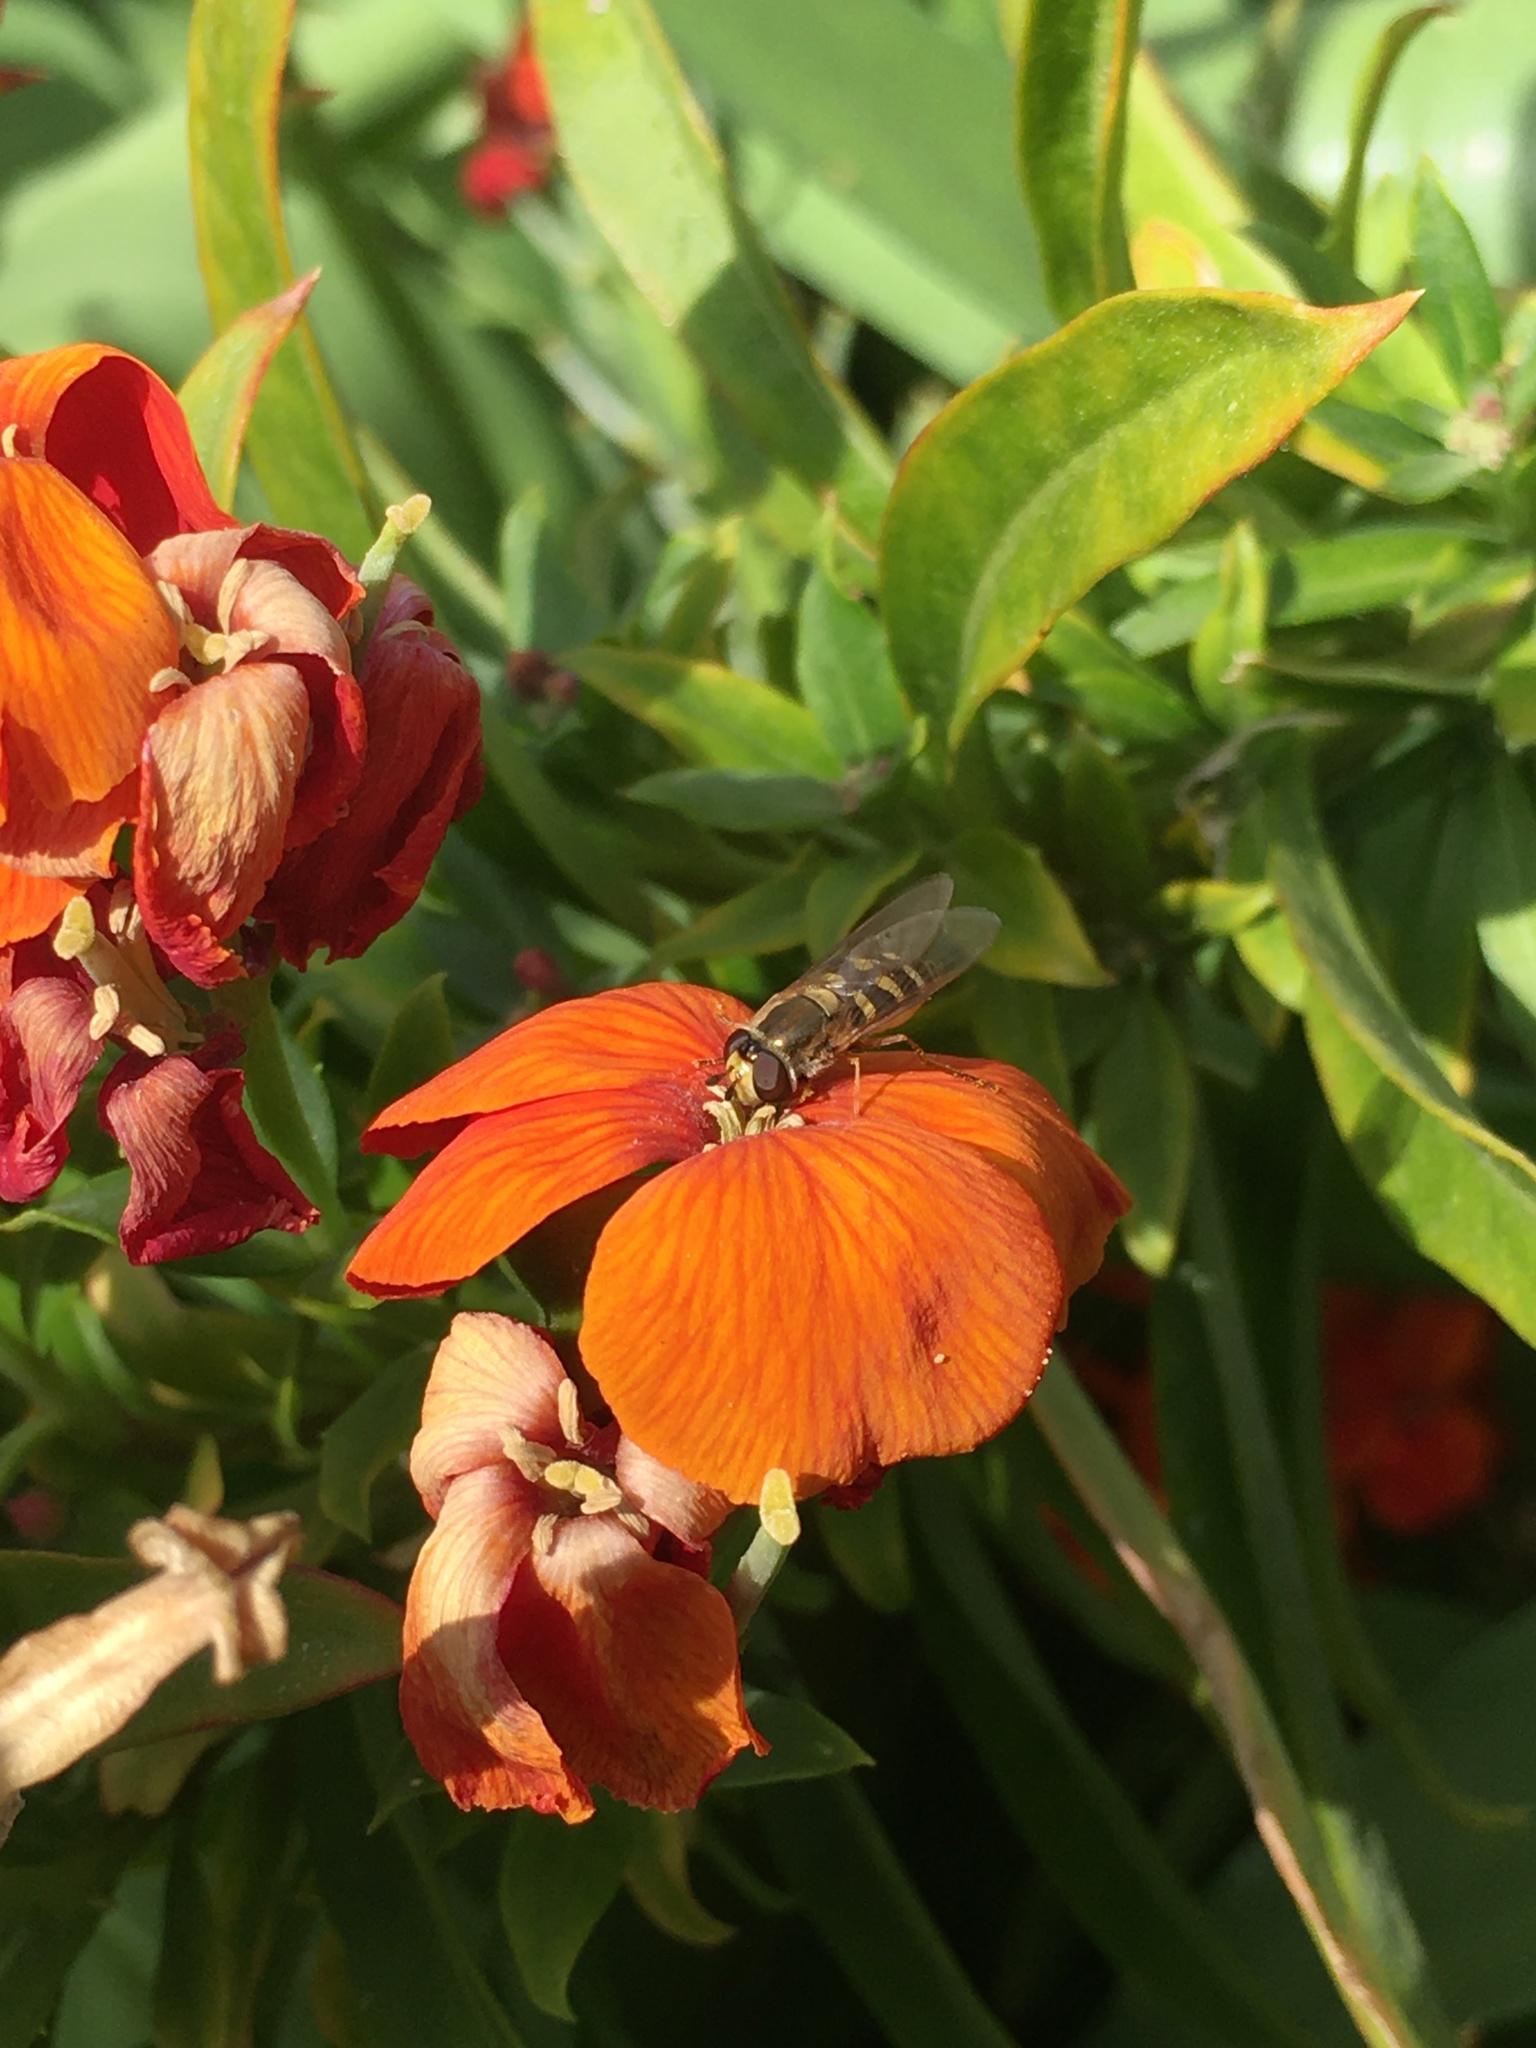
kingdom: Animalia
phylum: Arthropoda
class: Insecta
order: Diptera
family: Syrphidae
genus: Eupeodes
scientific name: Eupeodes corollae
